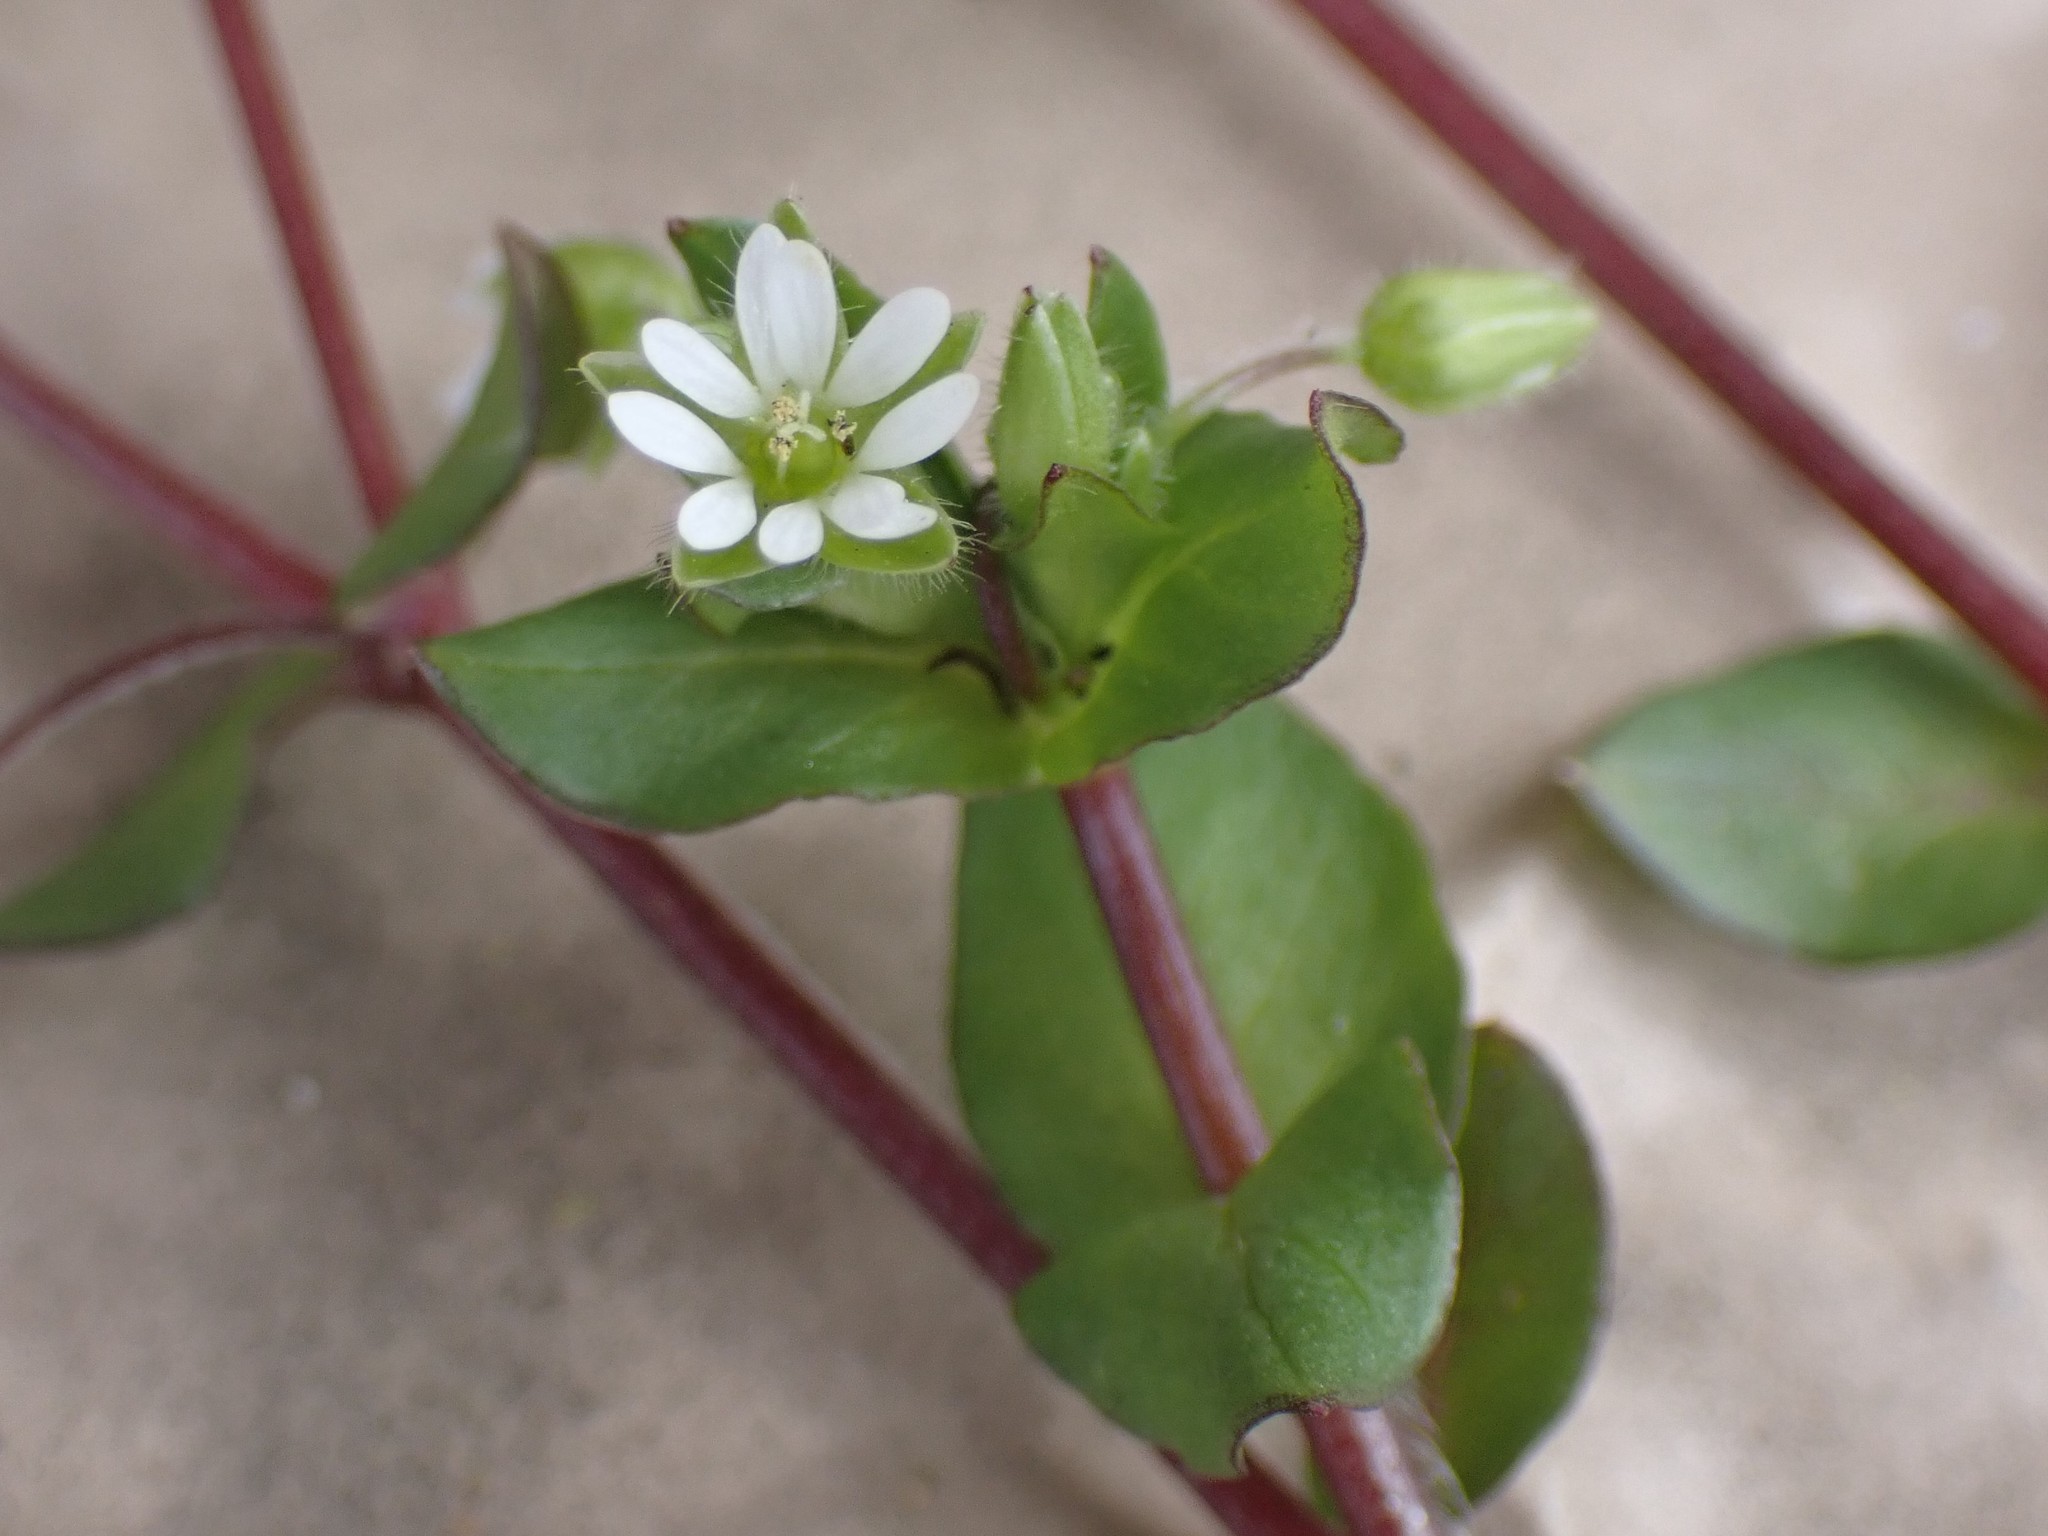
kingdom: Plantae
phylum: Tracheophyta
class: Magnoliopsida
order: Caryophyllales
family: Caryophyllaceae
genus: Stellaria
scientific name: Stellaria media
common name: Common chickweed
